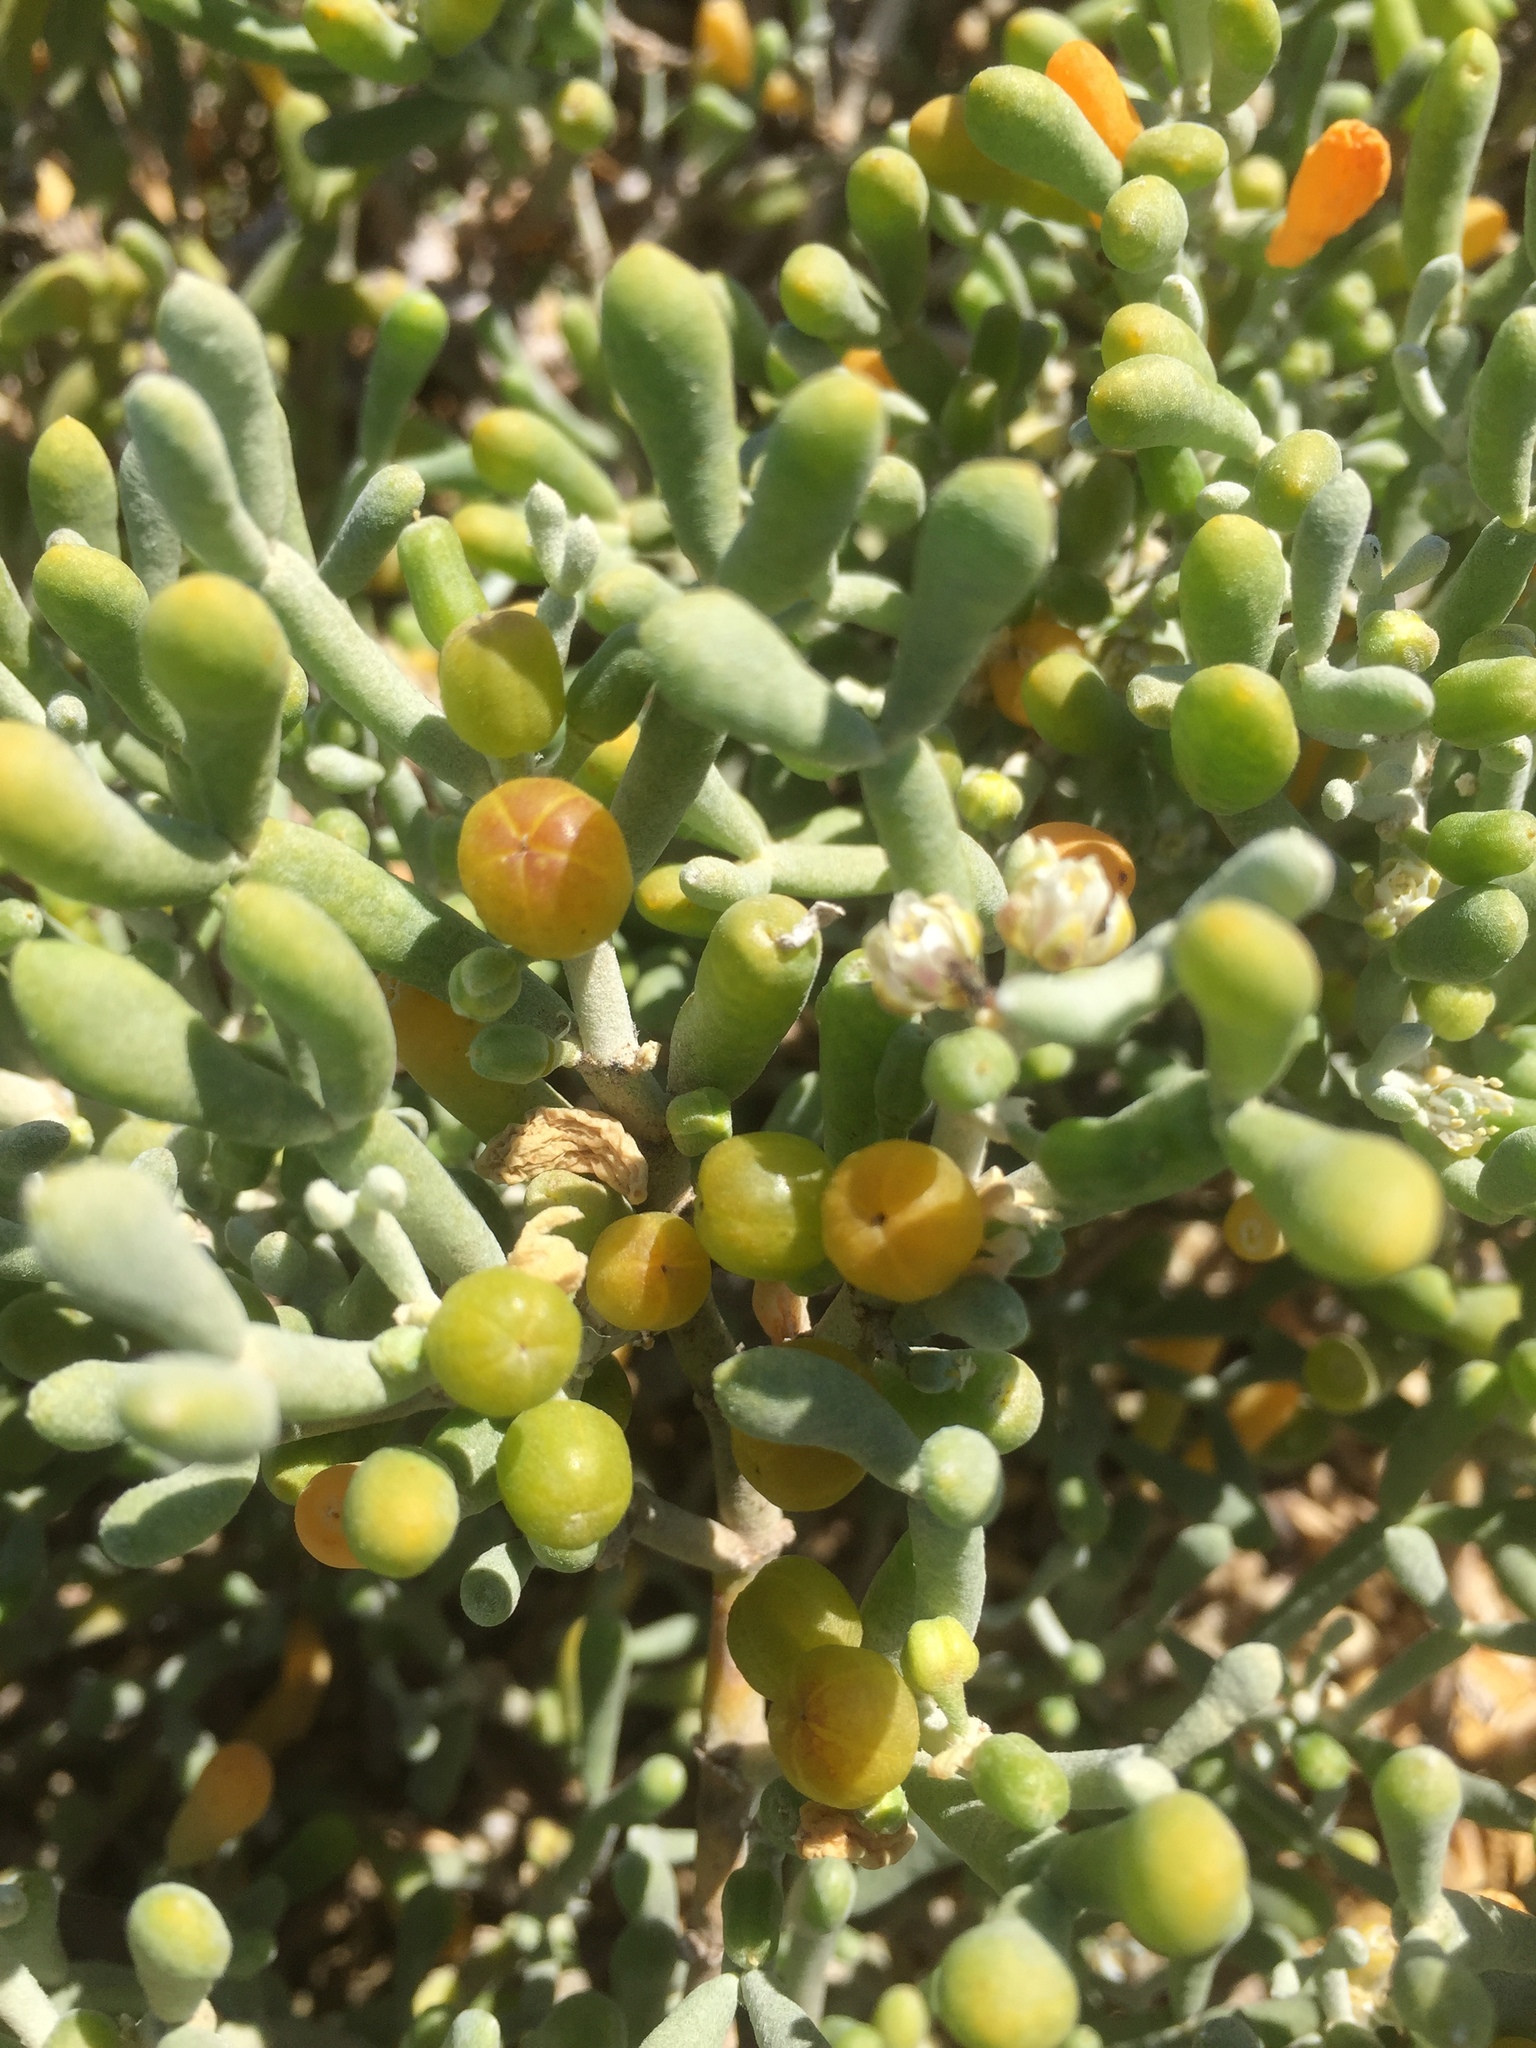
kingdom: Plantae
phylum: Tracheophyta
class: Magnoliopsida
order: Zygophyllales
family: Zygophyllaceae
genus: Tetraena
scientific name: Tetraena fontanesii
